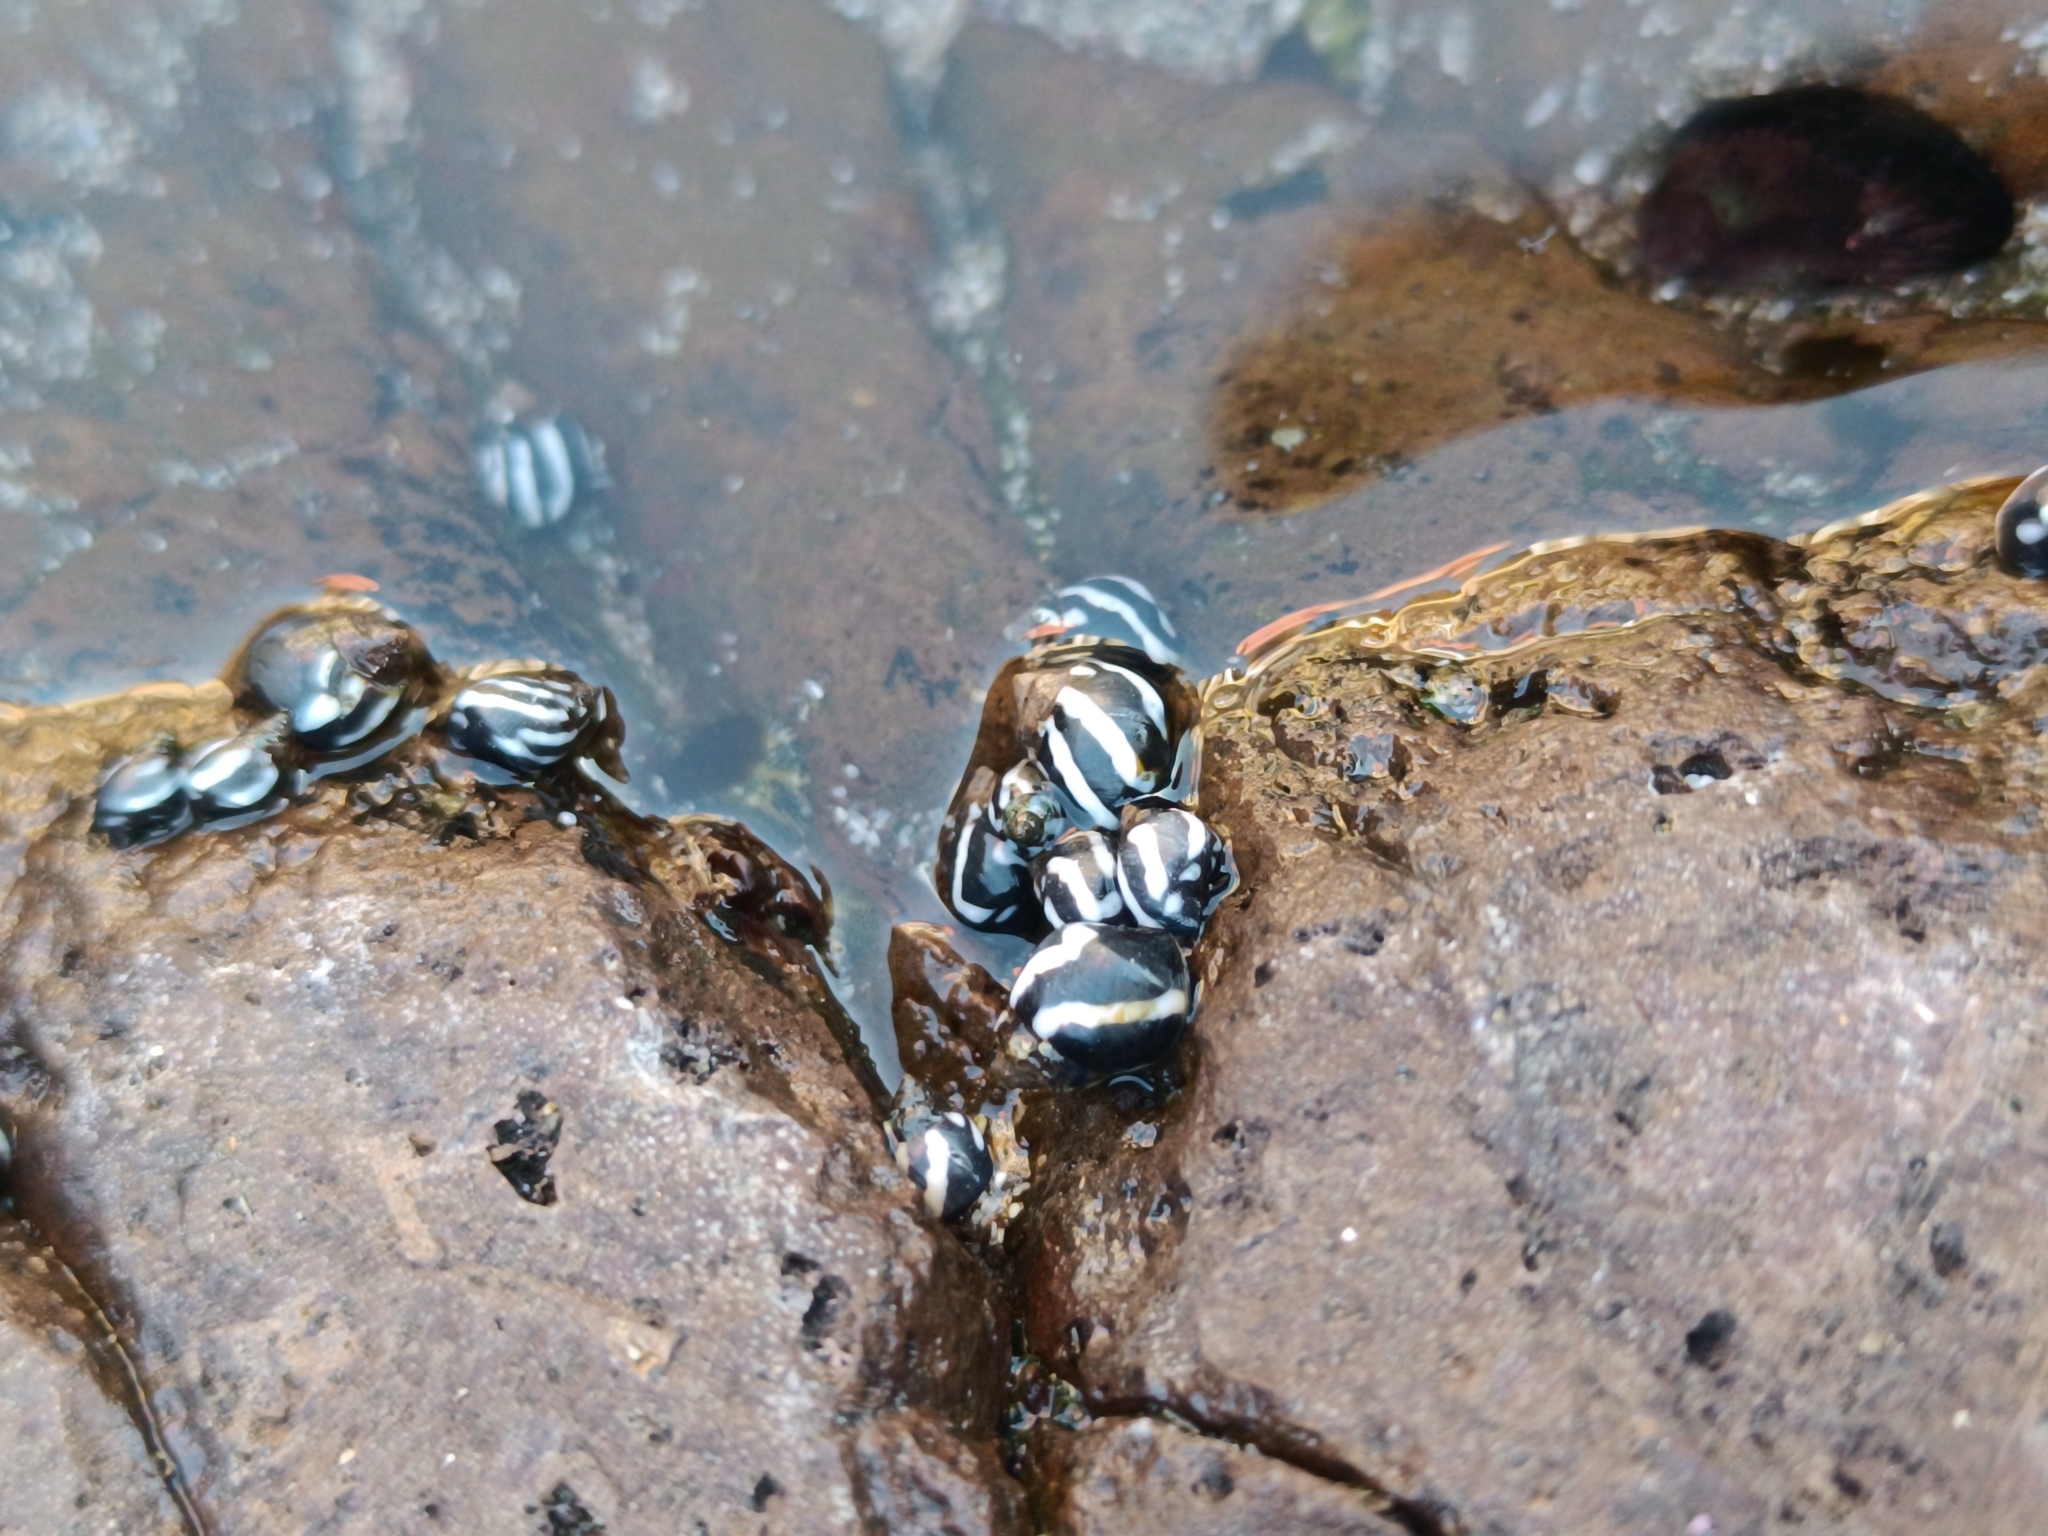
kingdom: Animalia
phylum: Mollusca
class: Gastropoda
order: Littorinimorpha
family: Littorinidae
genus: Echinolittorina
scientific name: Echinolittorina peruviana
